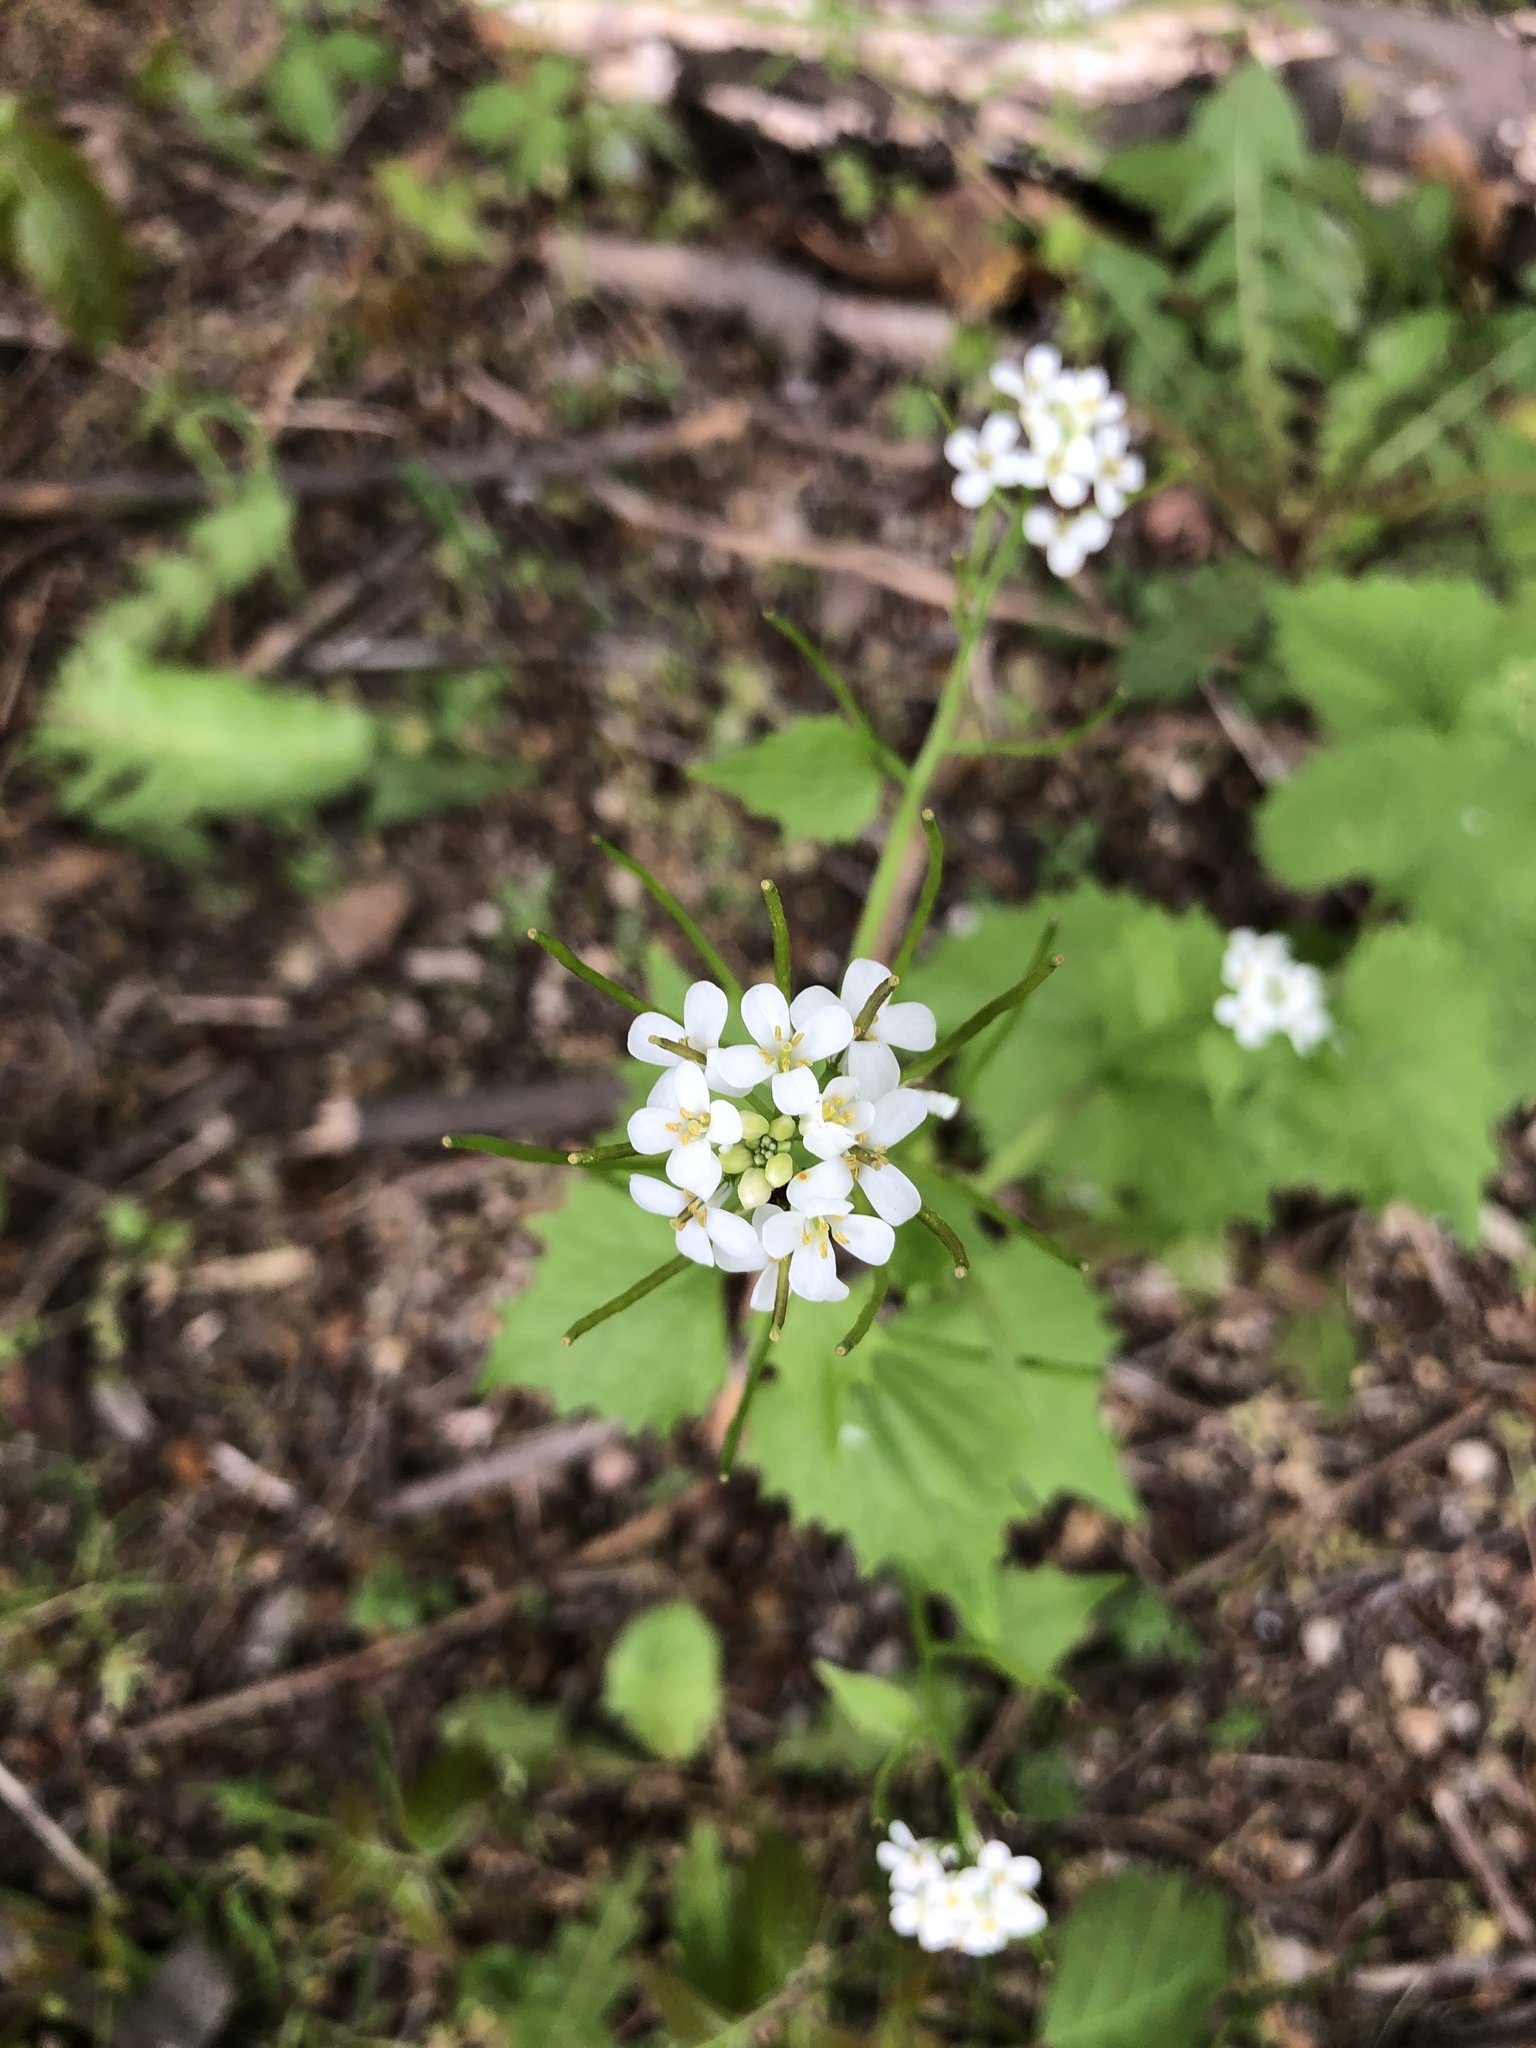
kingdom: Plantae
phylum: Tracheophyta
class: Magnoliopsida
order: Brassicales
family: Brassicaceae
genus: Alliaria
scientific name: Alliaria petiolata
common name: Garlic mustard
